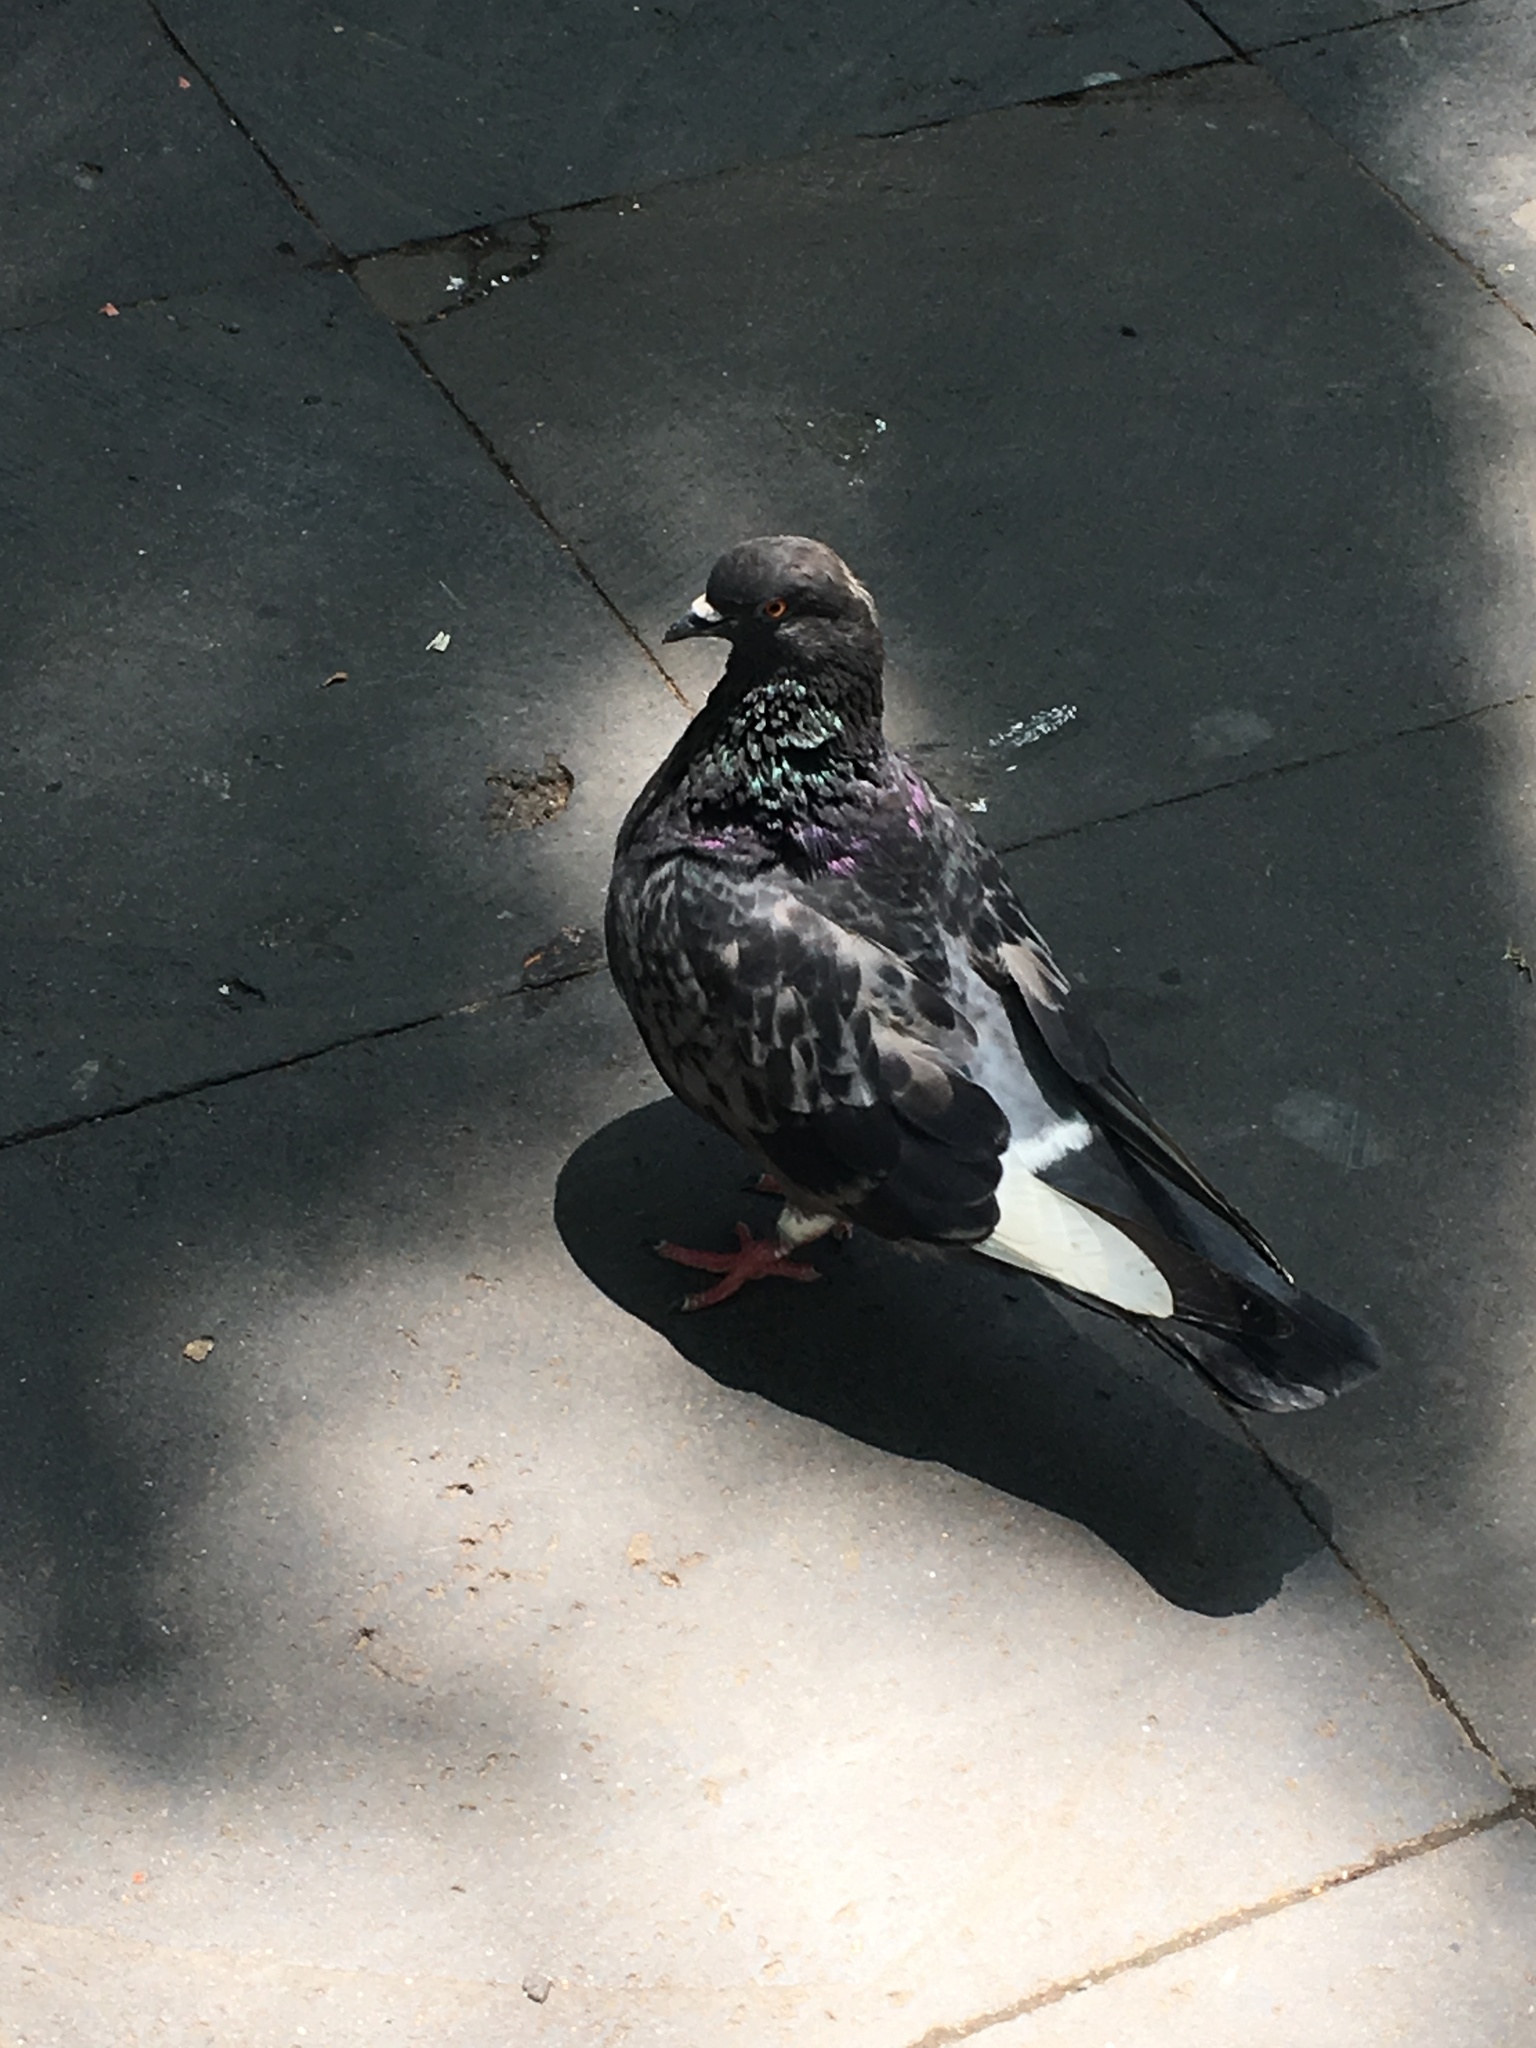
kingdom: Animalia
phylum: Chordata
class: Aves
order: Columbiformes
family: Columbidae
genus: Columba
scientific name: Columba livia
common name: Rock pigeon
